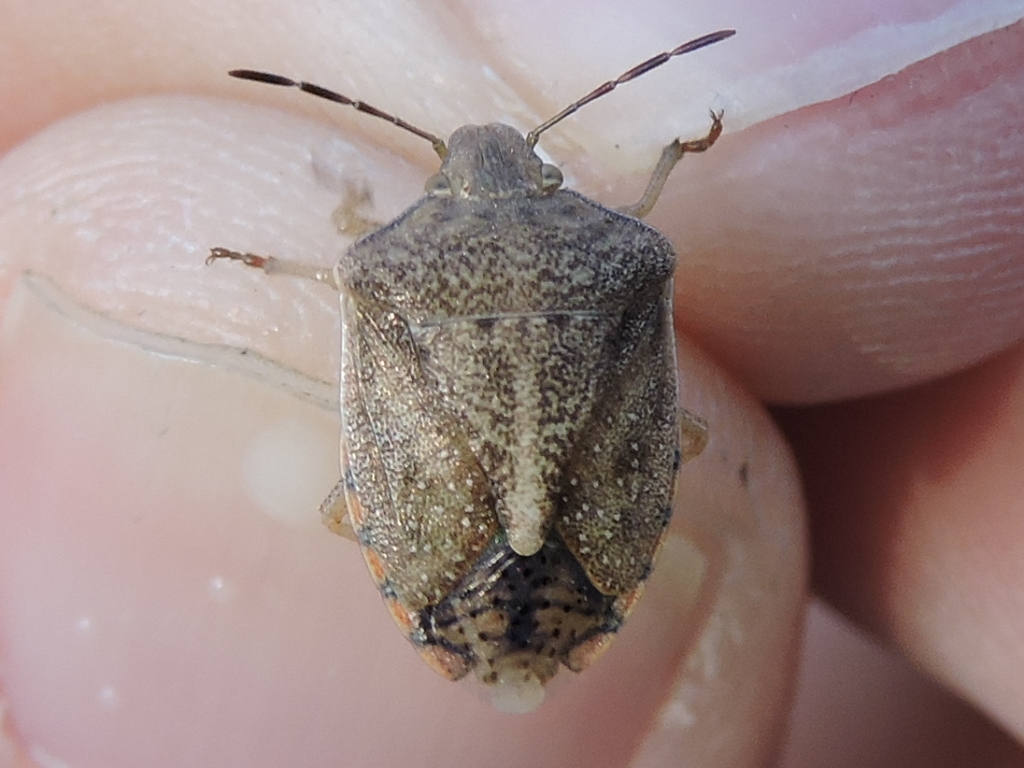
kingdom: Animalia
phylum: Arthropoda
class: Insecta
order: Hemiptera
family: Pentatomidae
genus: Thyanta
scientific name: Thyanta custator
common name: Stink bug
